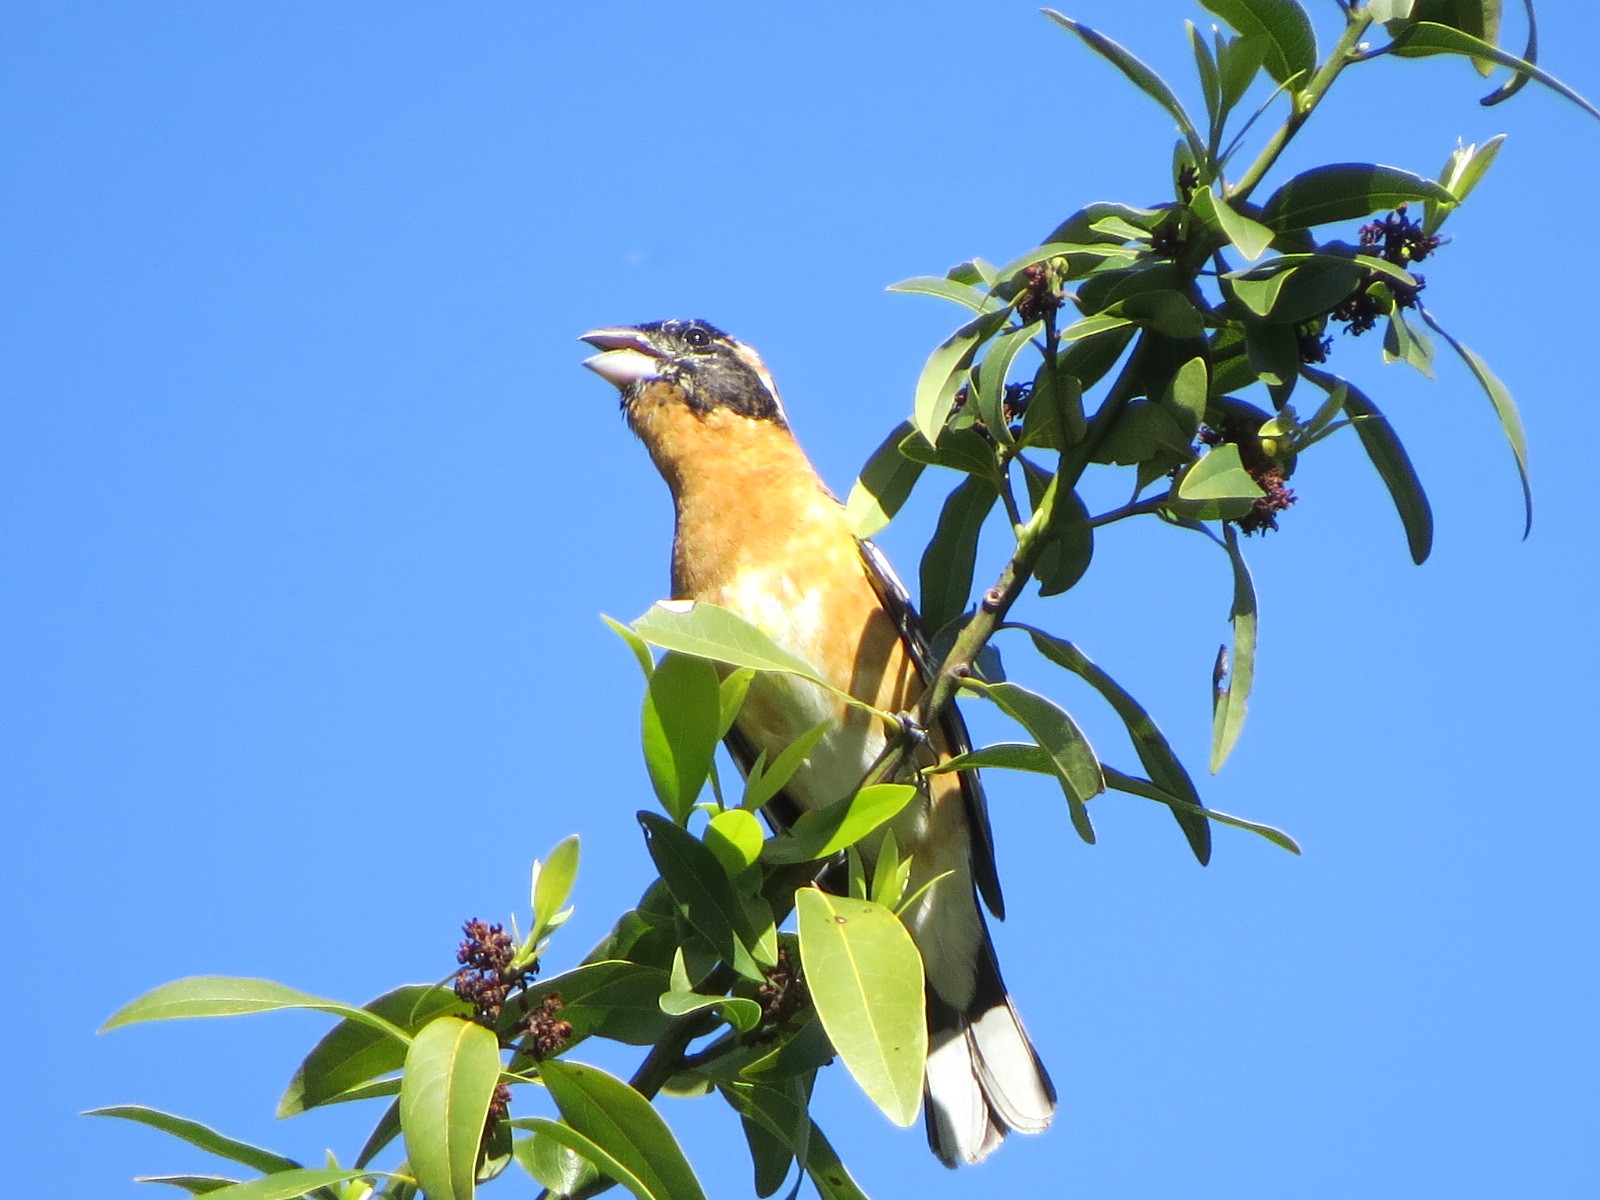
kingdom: Animalia
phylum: Chordata
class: Aves
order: Passeriformes
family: Cardinalidae
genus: Pheucticus
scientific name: Pheucticus melanocephalus
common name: Black-headed grosbeak
